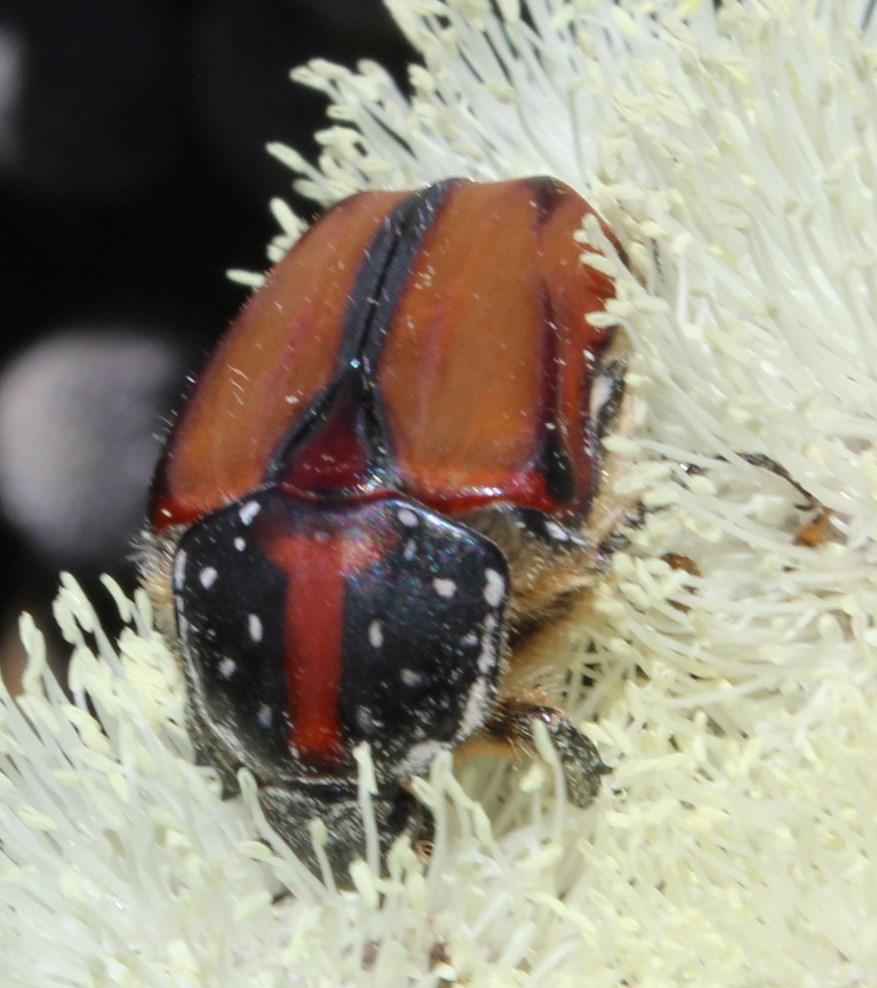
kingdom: Animalia
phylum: Arthropoda
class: Insecta
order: Coleoptera
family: Scarabaeidae
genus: Trichostetha
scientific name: Trichostetha capensis
